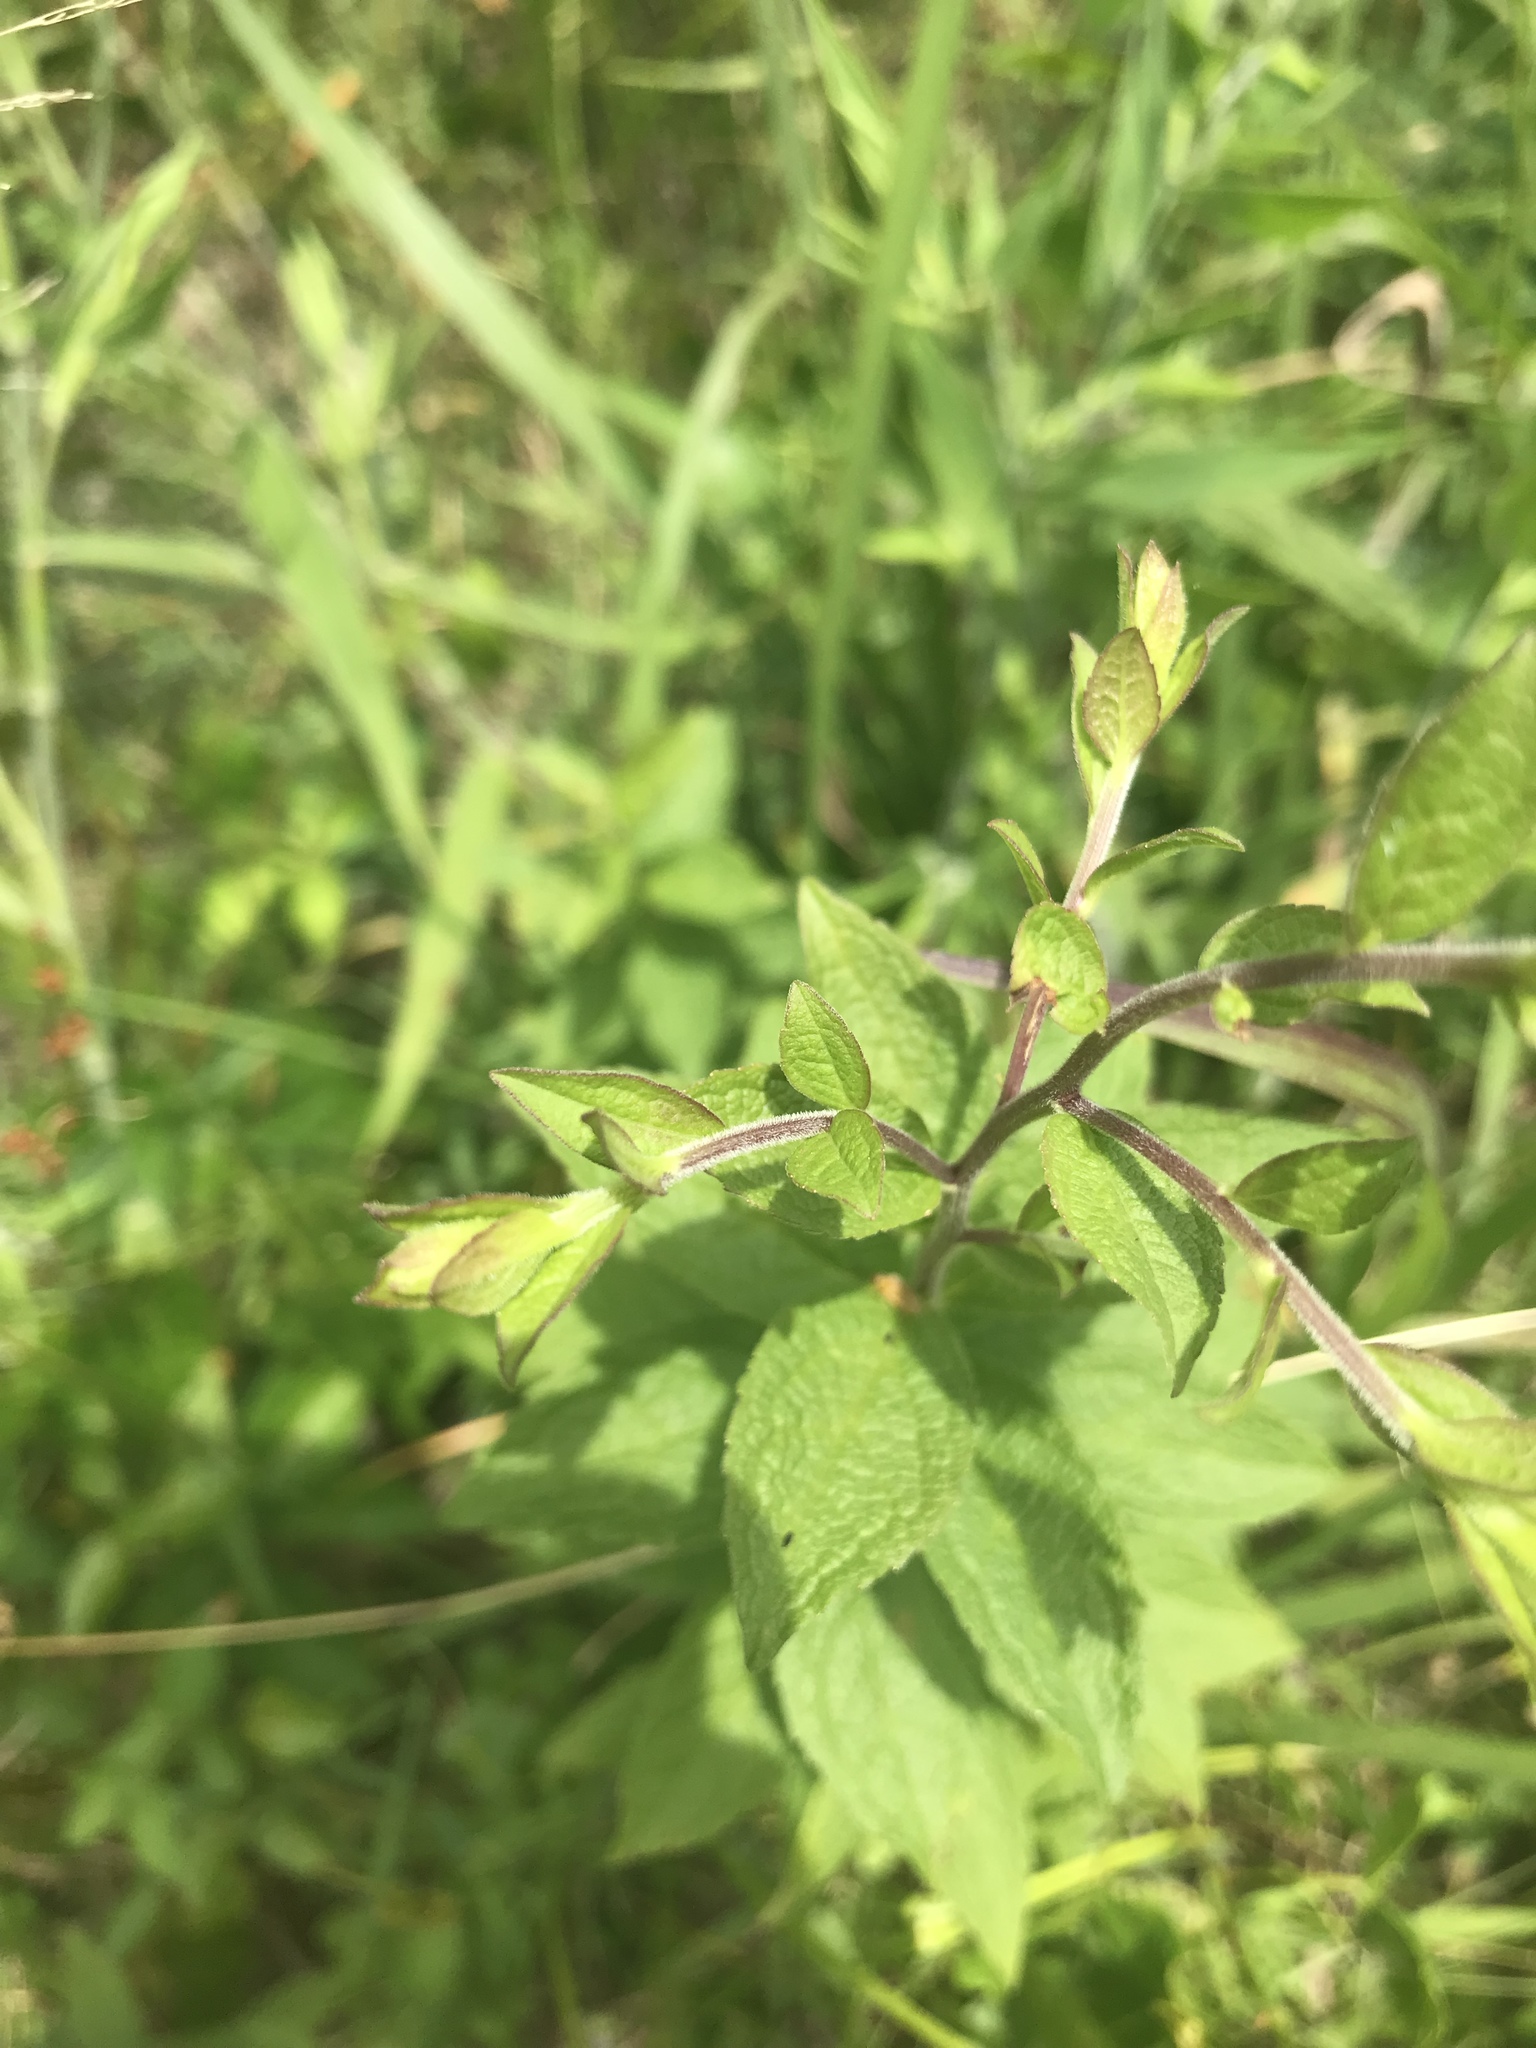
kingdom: Plantae
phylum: Tracheophyta
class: Magnoliopsida
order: Asterales
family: Asteraceae
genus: Solidago
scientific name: Solidago rugosa
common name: Rough-stemmed goldenrod
